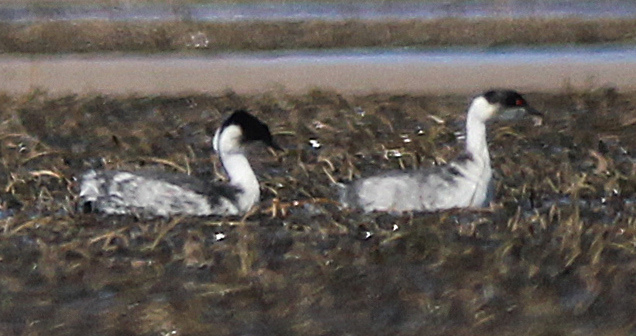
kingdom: Animalia
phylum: Chordata
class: Aves
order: Podicipediformes
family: Podicipedidae
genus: Podiceps
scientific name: Podiceps occipitalis
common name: Silvery grebe
